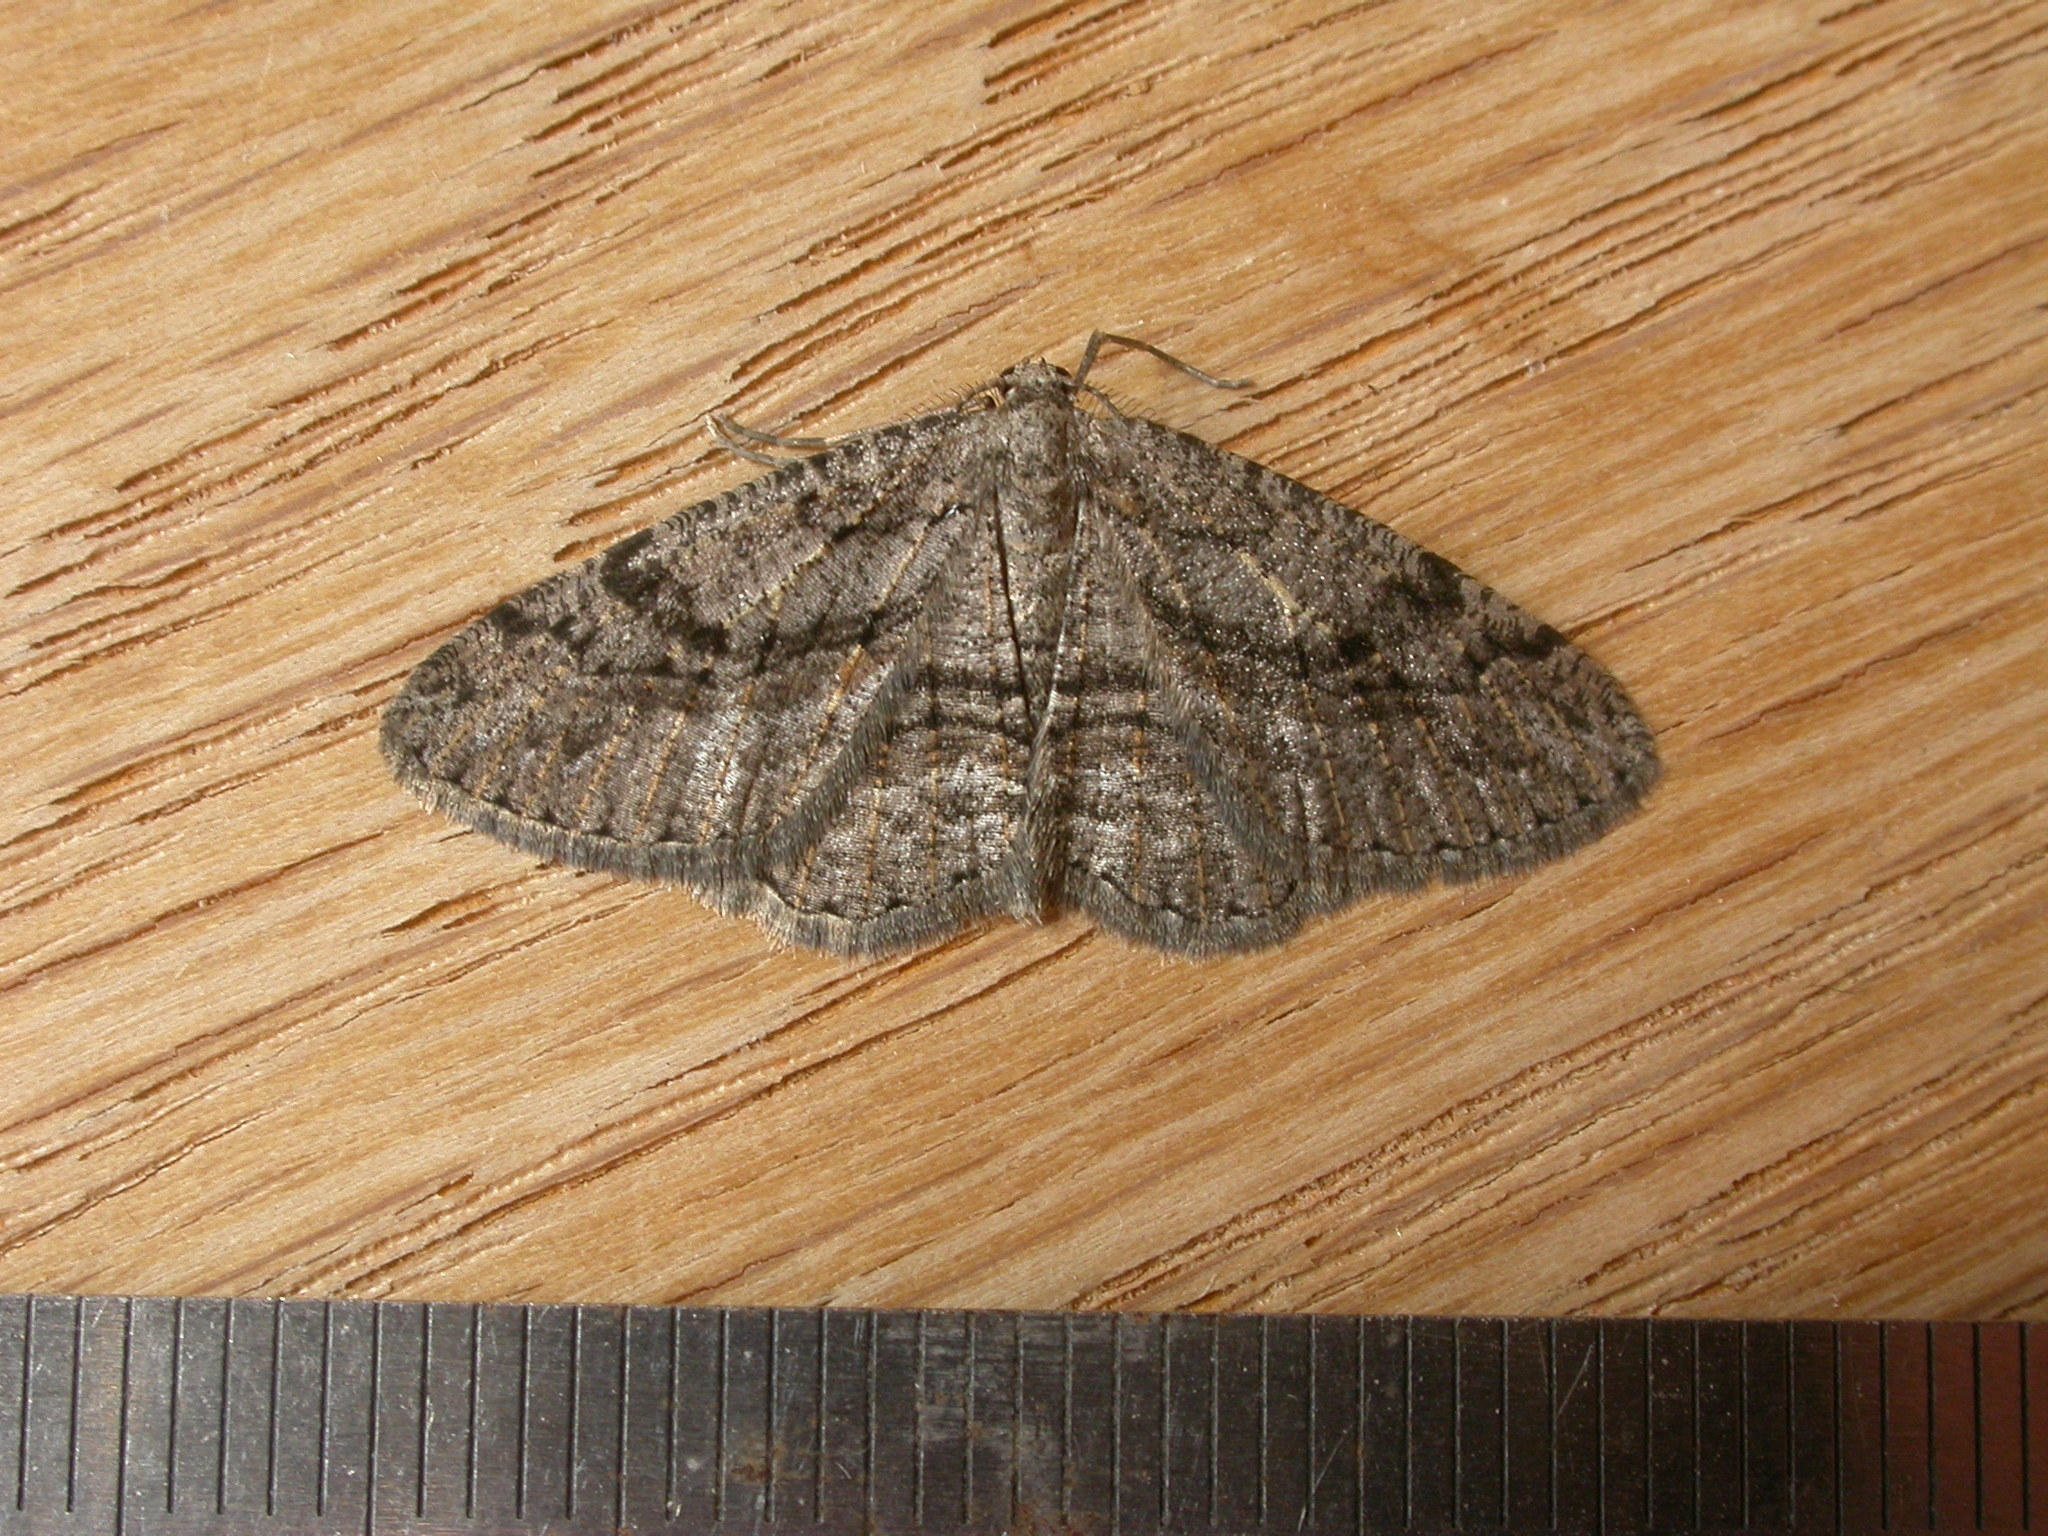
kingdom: Animalia
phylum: Arthropoda
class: Insecta
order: Lepidoptera
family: Geometridae
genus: Zermizinga
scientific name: Zermizinga sinuata
